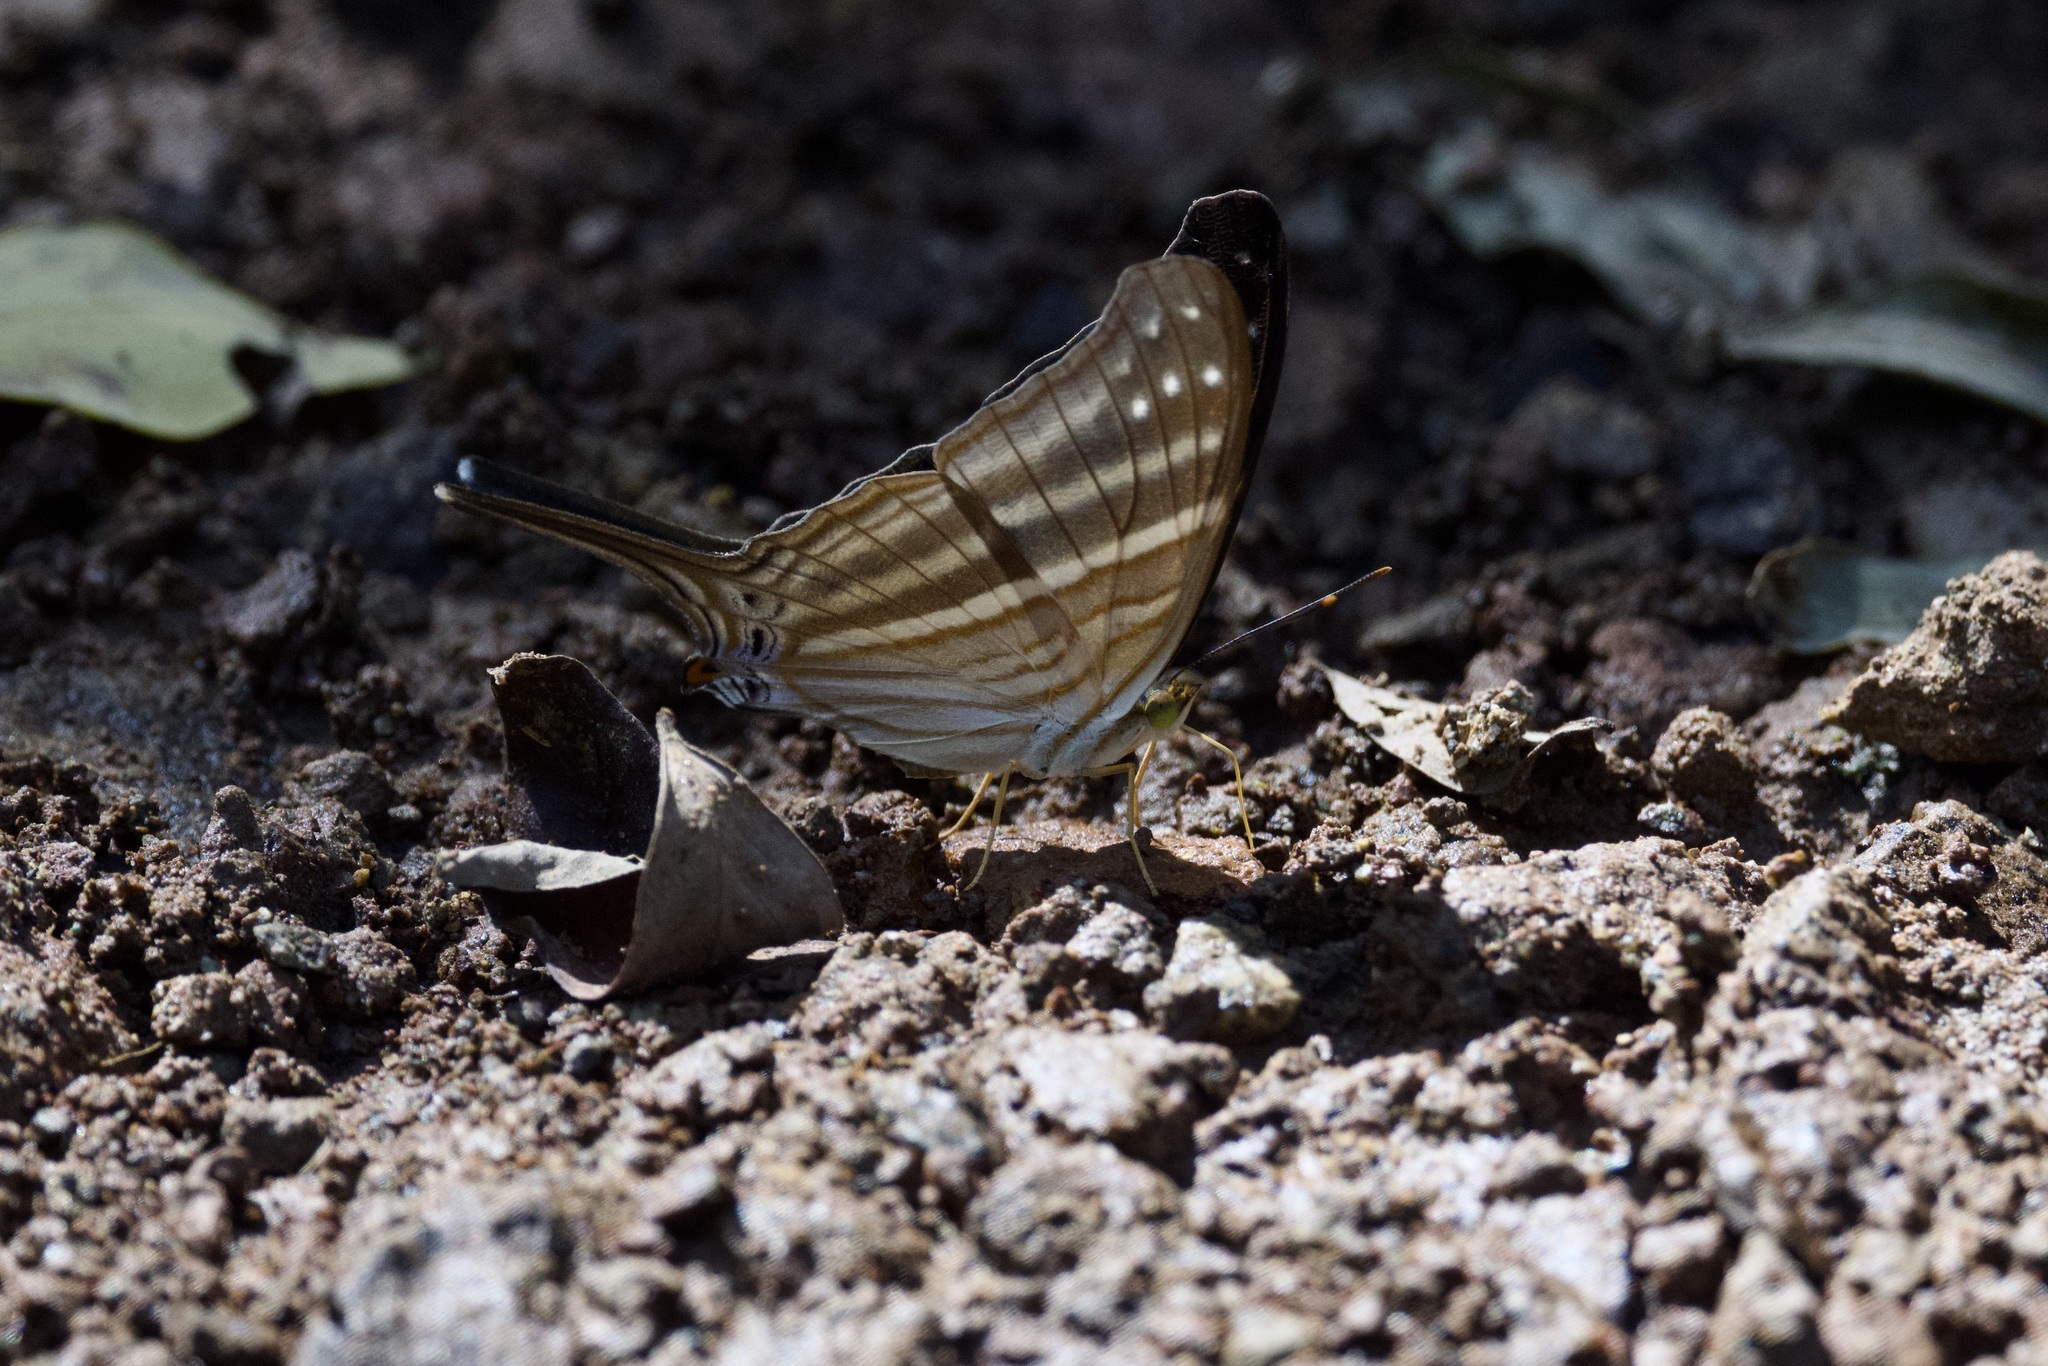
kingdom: Animalia
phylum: Arthropoda
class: Insecta
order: Lepidoptera
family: Nymphalidae
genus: Marpesia
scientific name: Marpesia chiron
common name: Many-banded daggerwing
